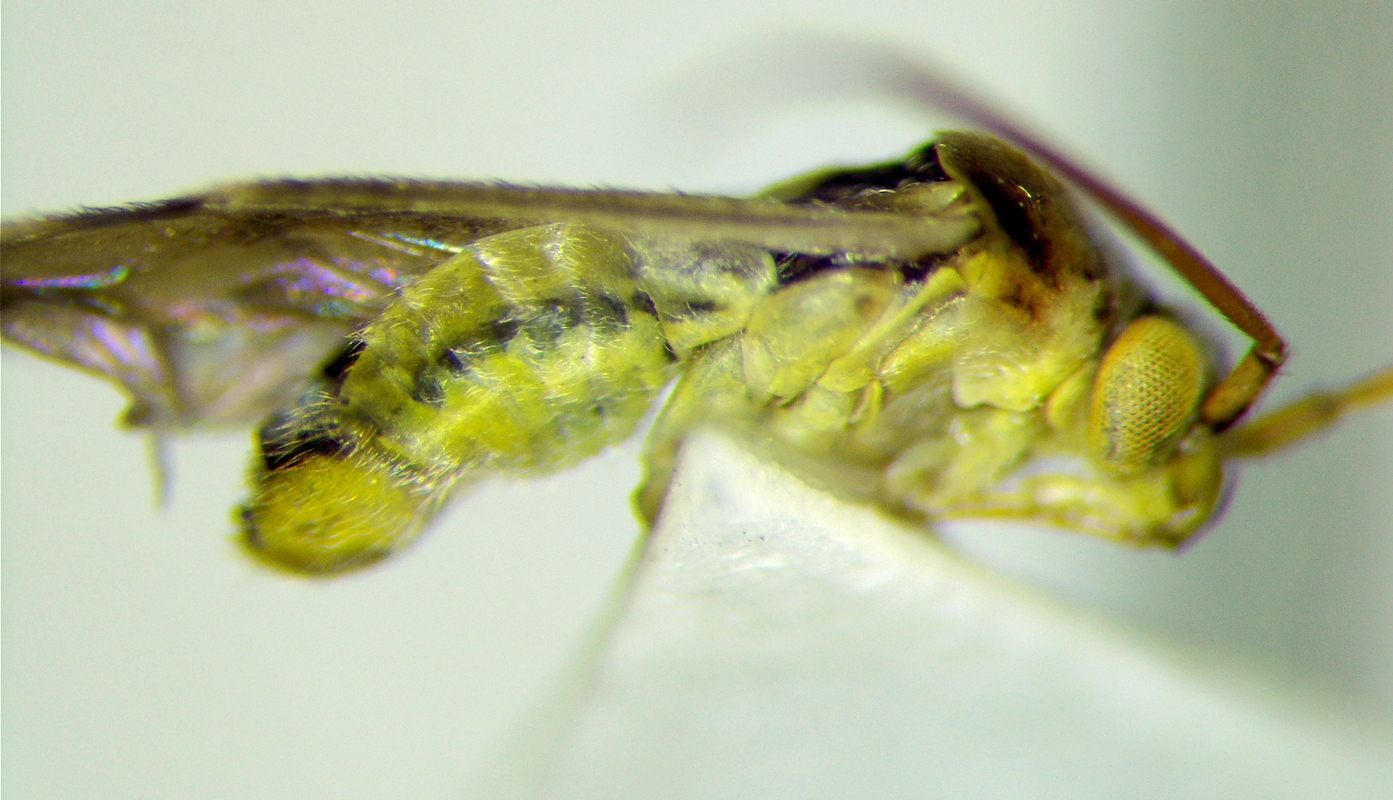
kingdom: Animalia
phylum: Arthropoda
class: Insecta
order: Hemiptera
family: Miridae
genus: Polymerus
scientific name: Polymerus vulneratus
